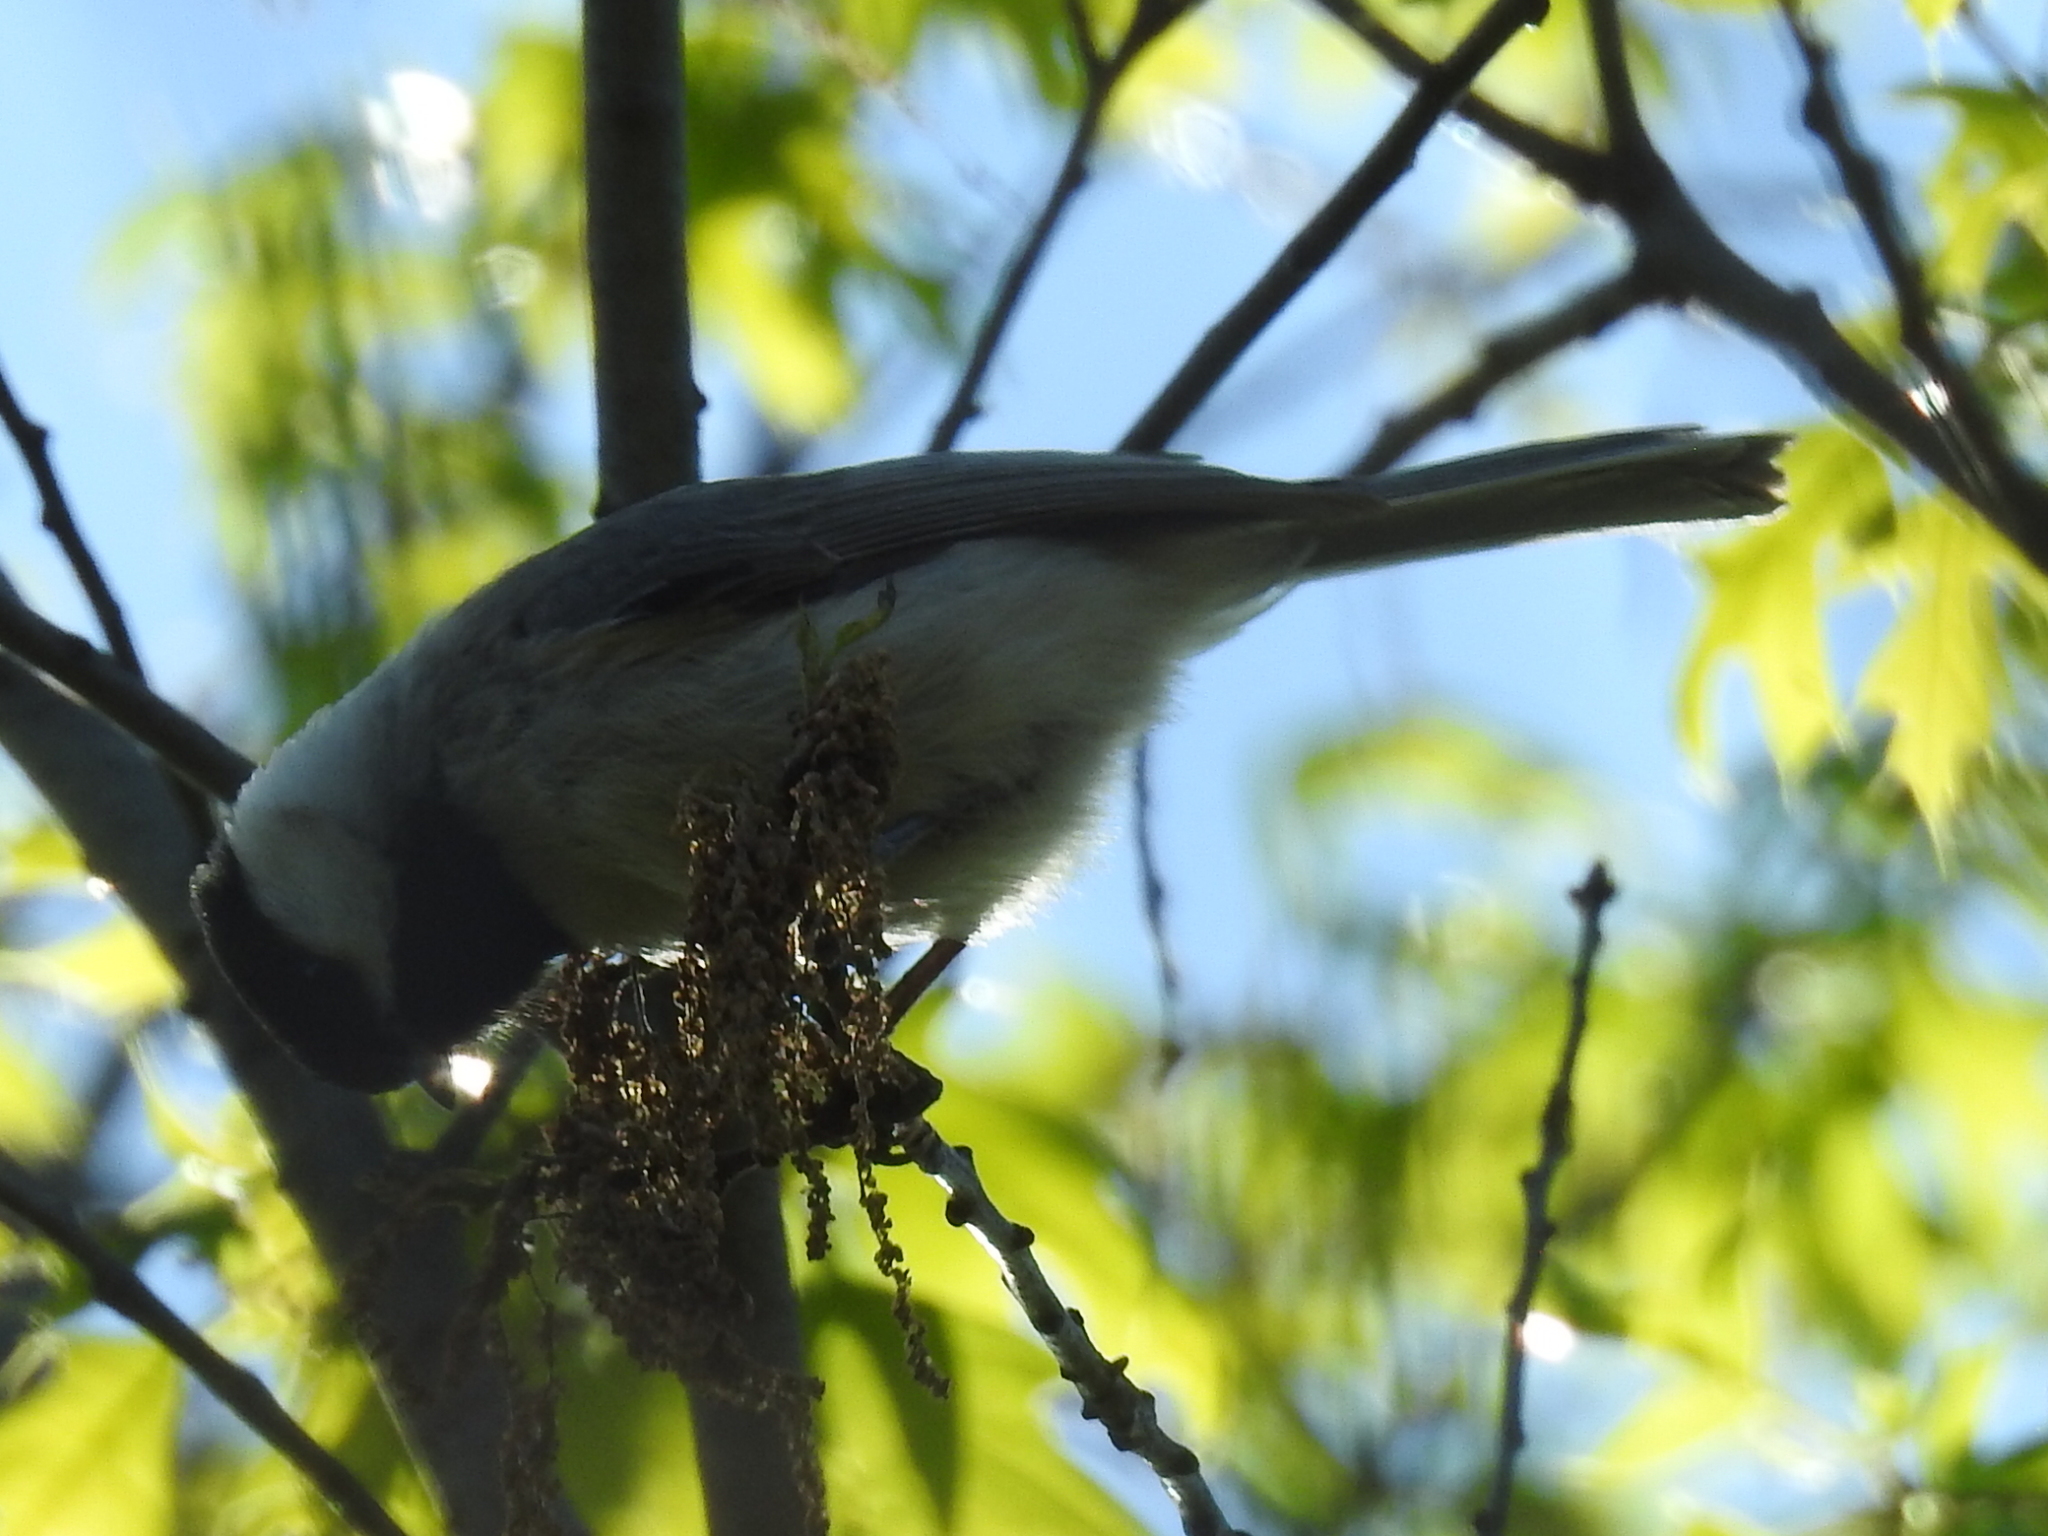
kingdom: Animalia
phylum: Chordata
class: Aves
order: Passeriformes
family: Paridae
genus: Poecile
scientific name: Poecile carolinensis
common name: Carolina chickadee
